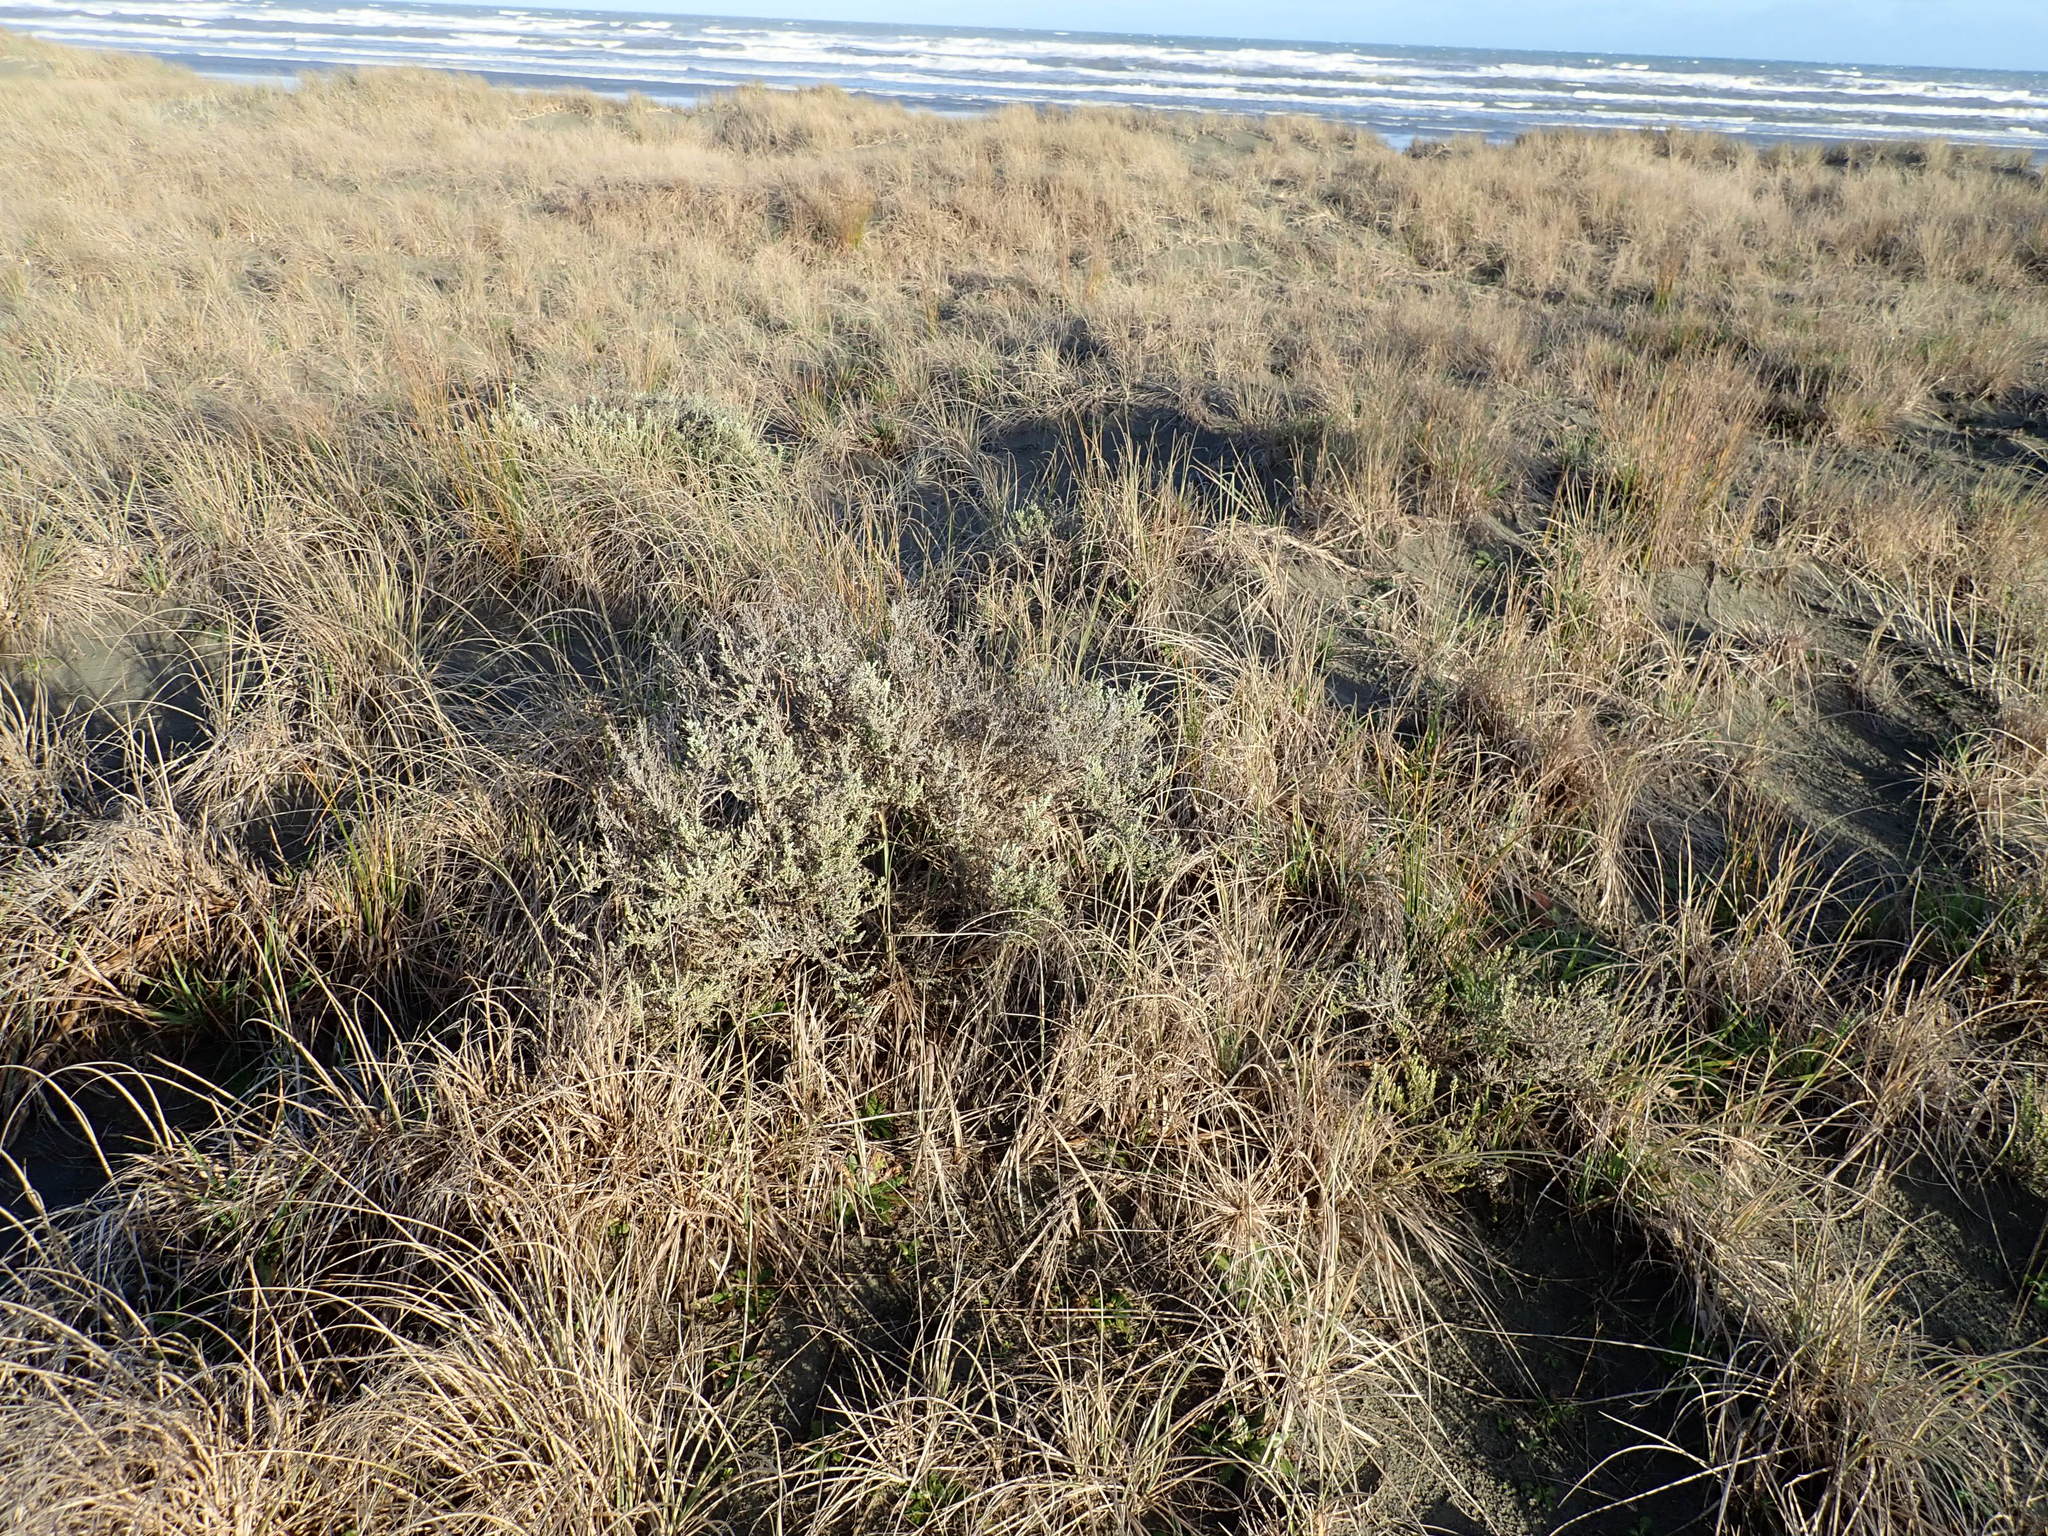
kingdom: Plantae
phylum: Tracheophyta
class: Magnoliopsida
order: Asterales
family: Asteraceae
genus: Ozothamnus
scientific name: Ozothamnus leptophyllus
